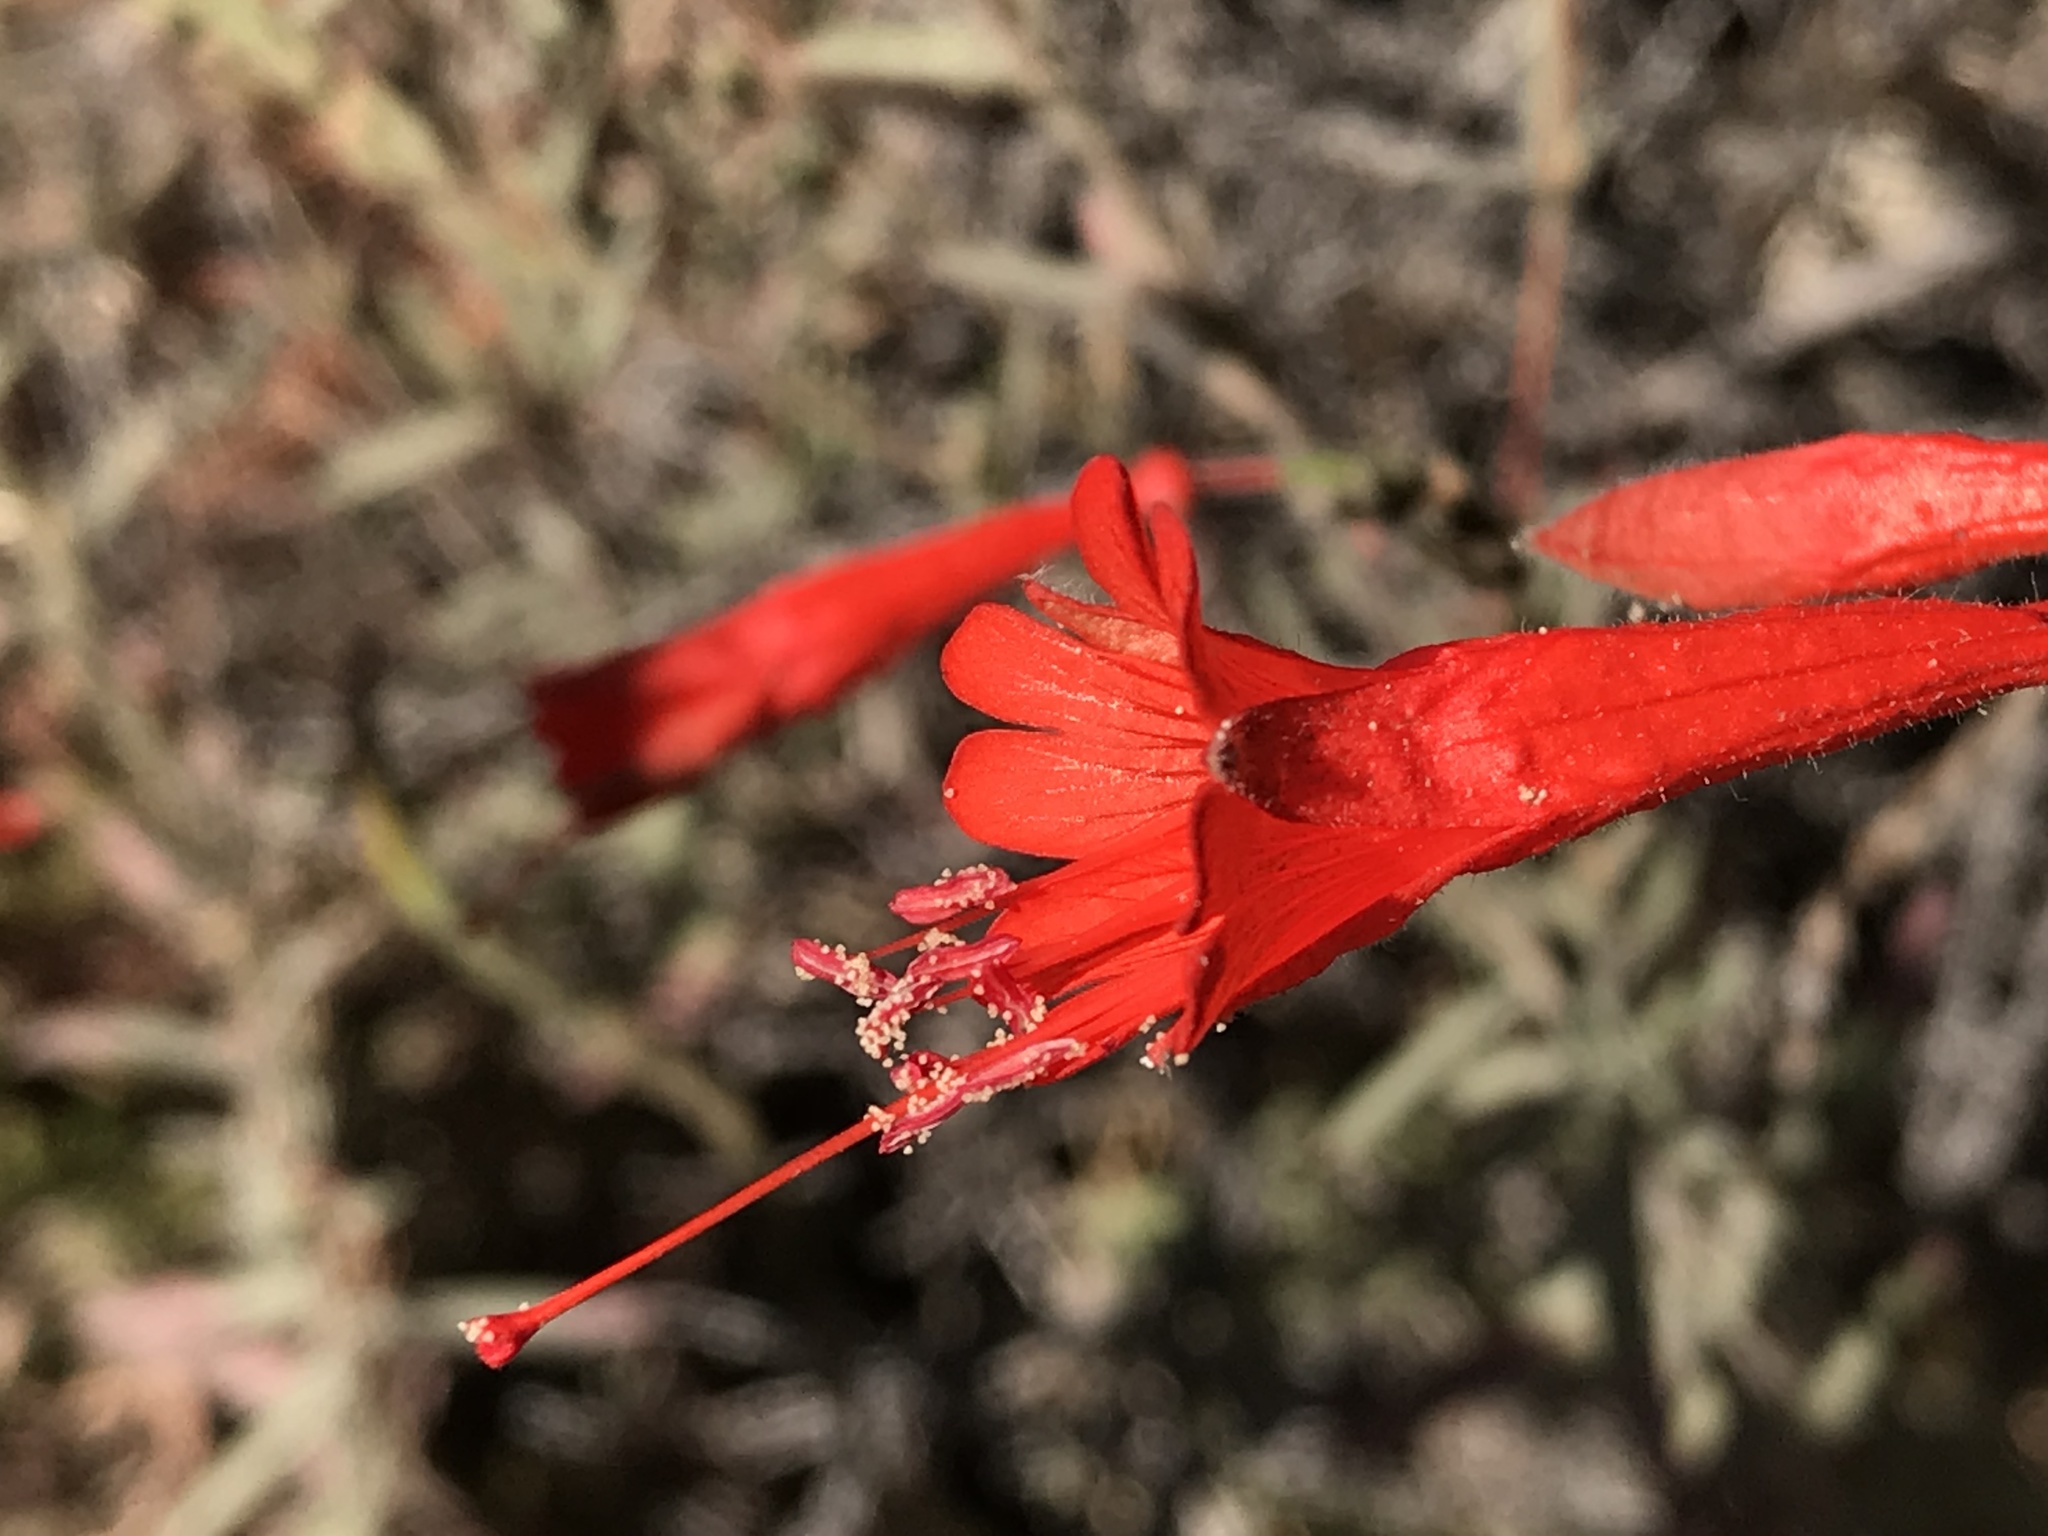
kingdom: Plantae
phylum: Tracheophyta
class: Magnoliopsida
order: Myrtales
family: Onagraceae
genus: Epilobium
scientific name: Epilobium canum
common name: California-fuchsia
